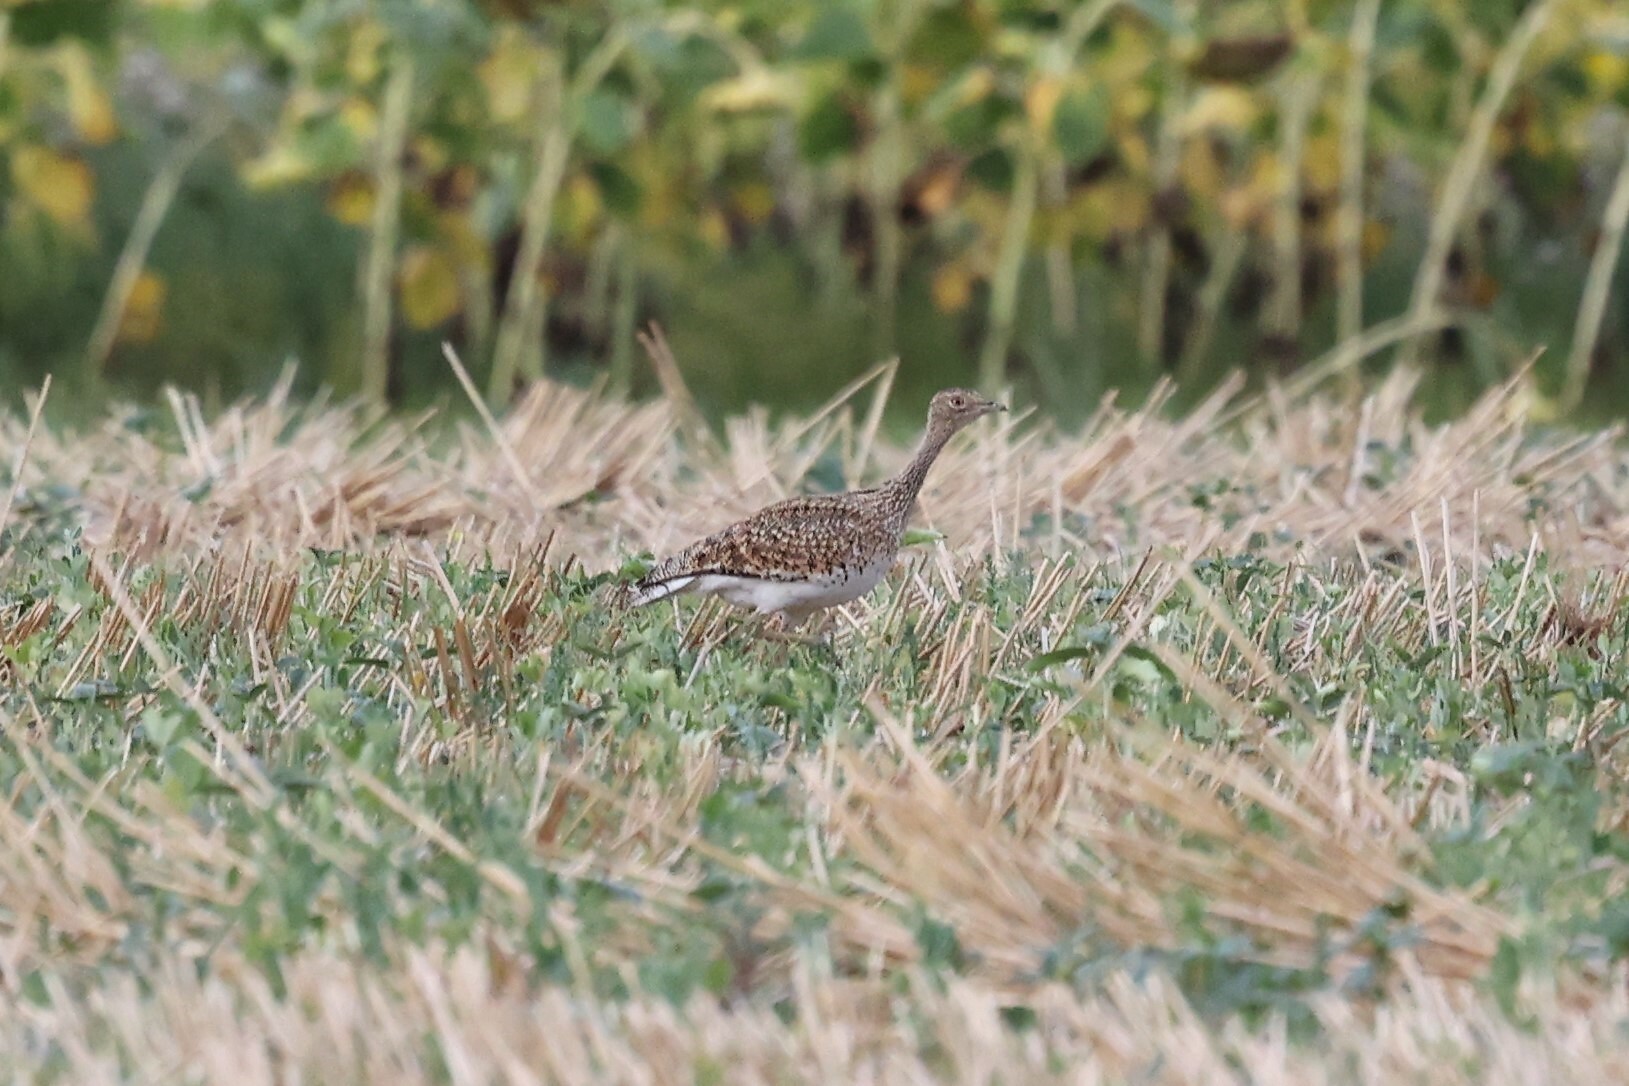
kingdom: Animalia
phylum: Chordata
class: Aves
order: Otidiformes
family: Otididae
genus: Tetrax
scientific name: Tetrax tetrax
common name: Little bustard
